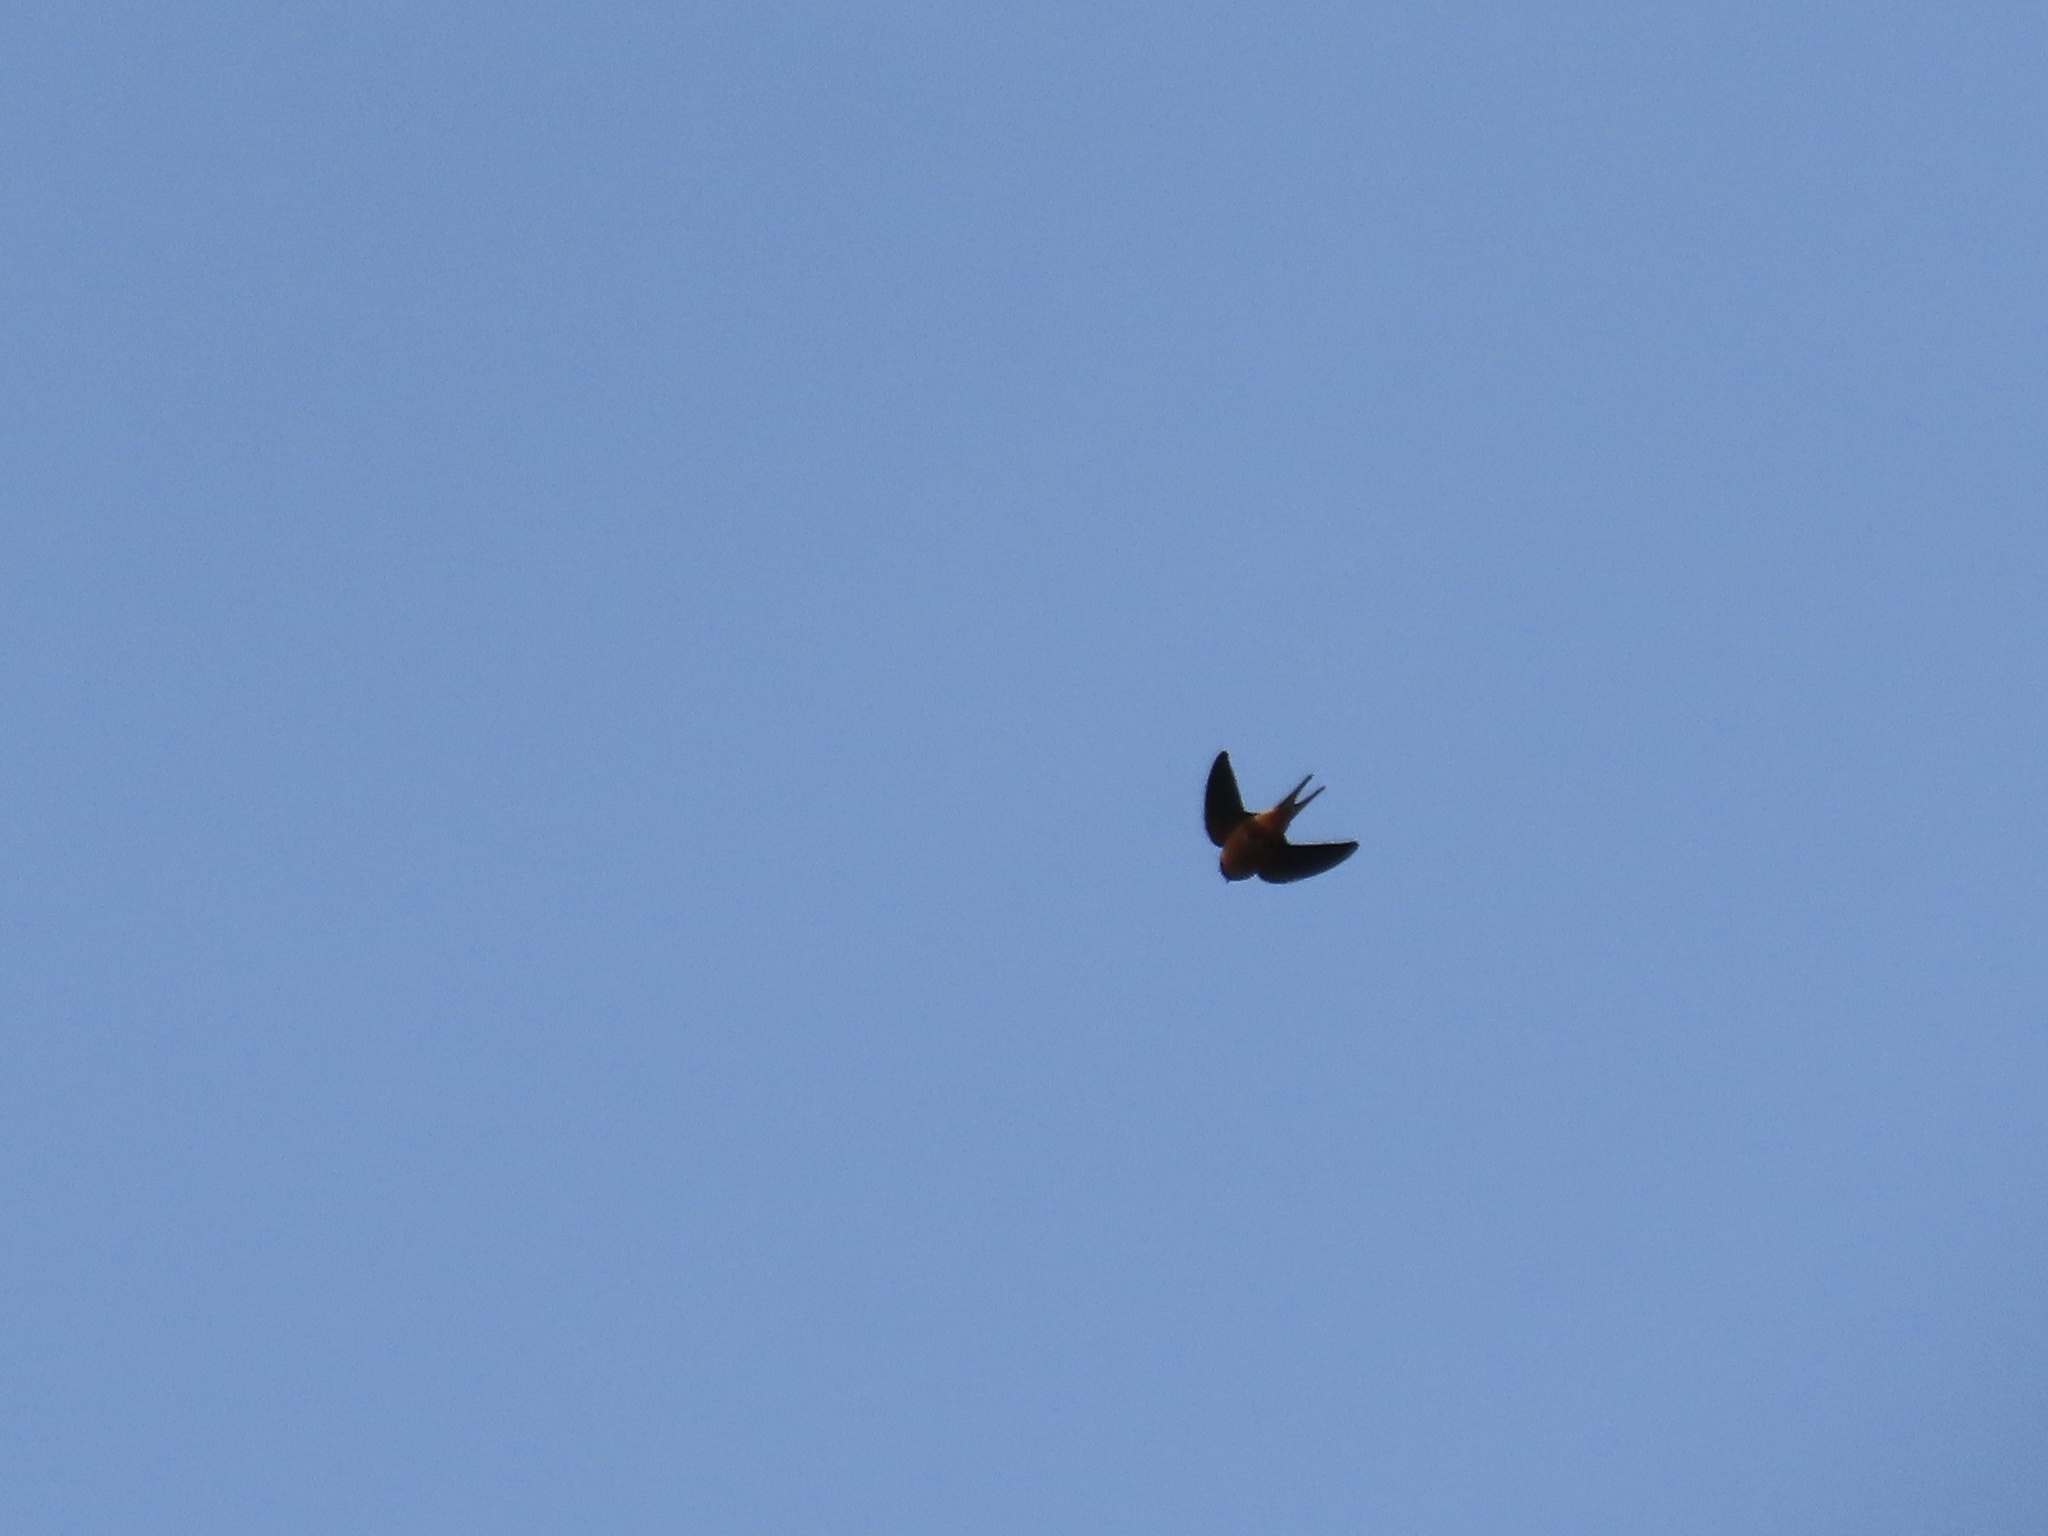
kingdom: Animalia
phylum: Chordata
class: Aves
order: Passeriformes
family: Hirundinidae
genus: Hirundo
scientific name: Hirundo rustica
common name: Barn swallow
